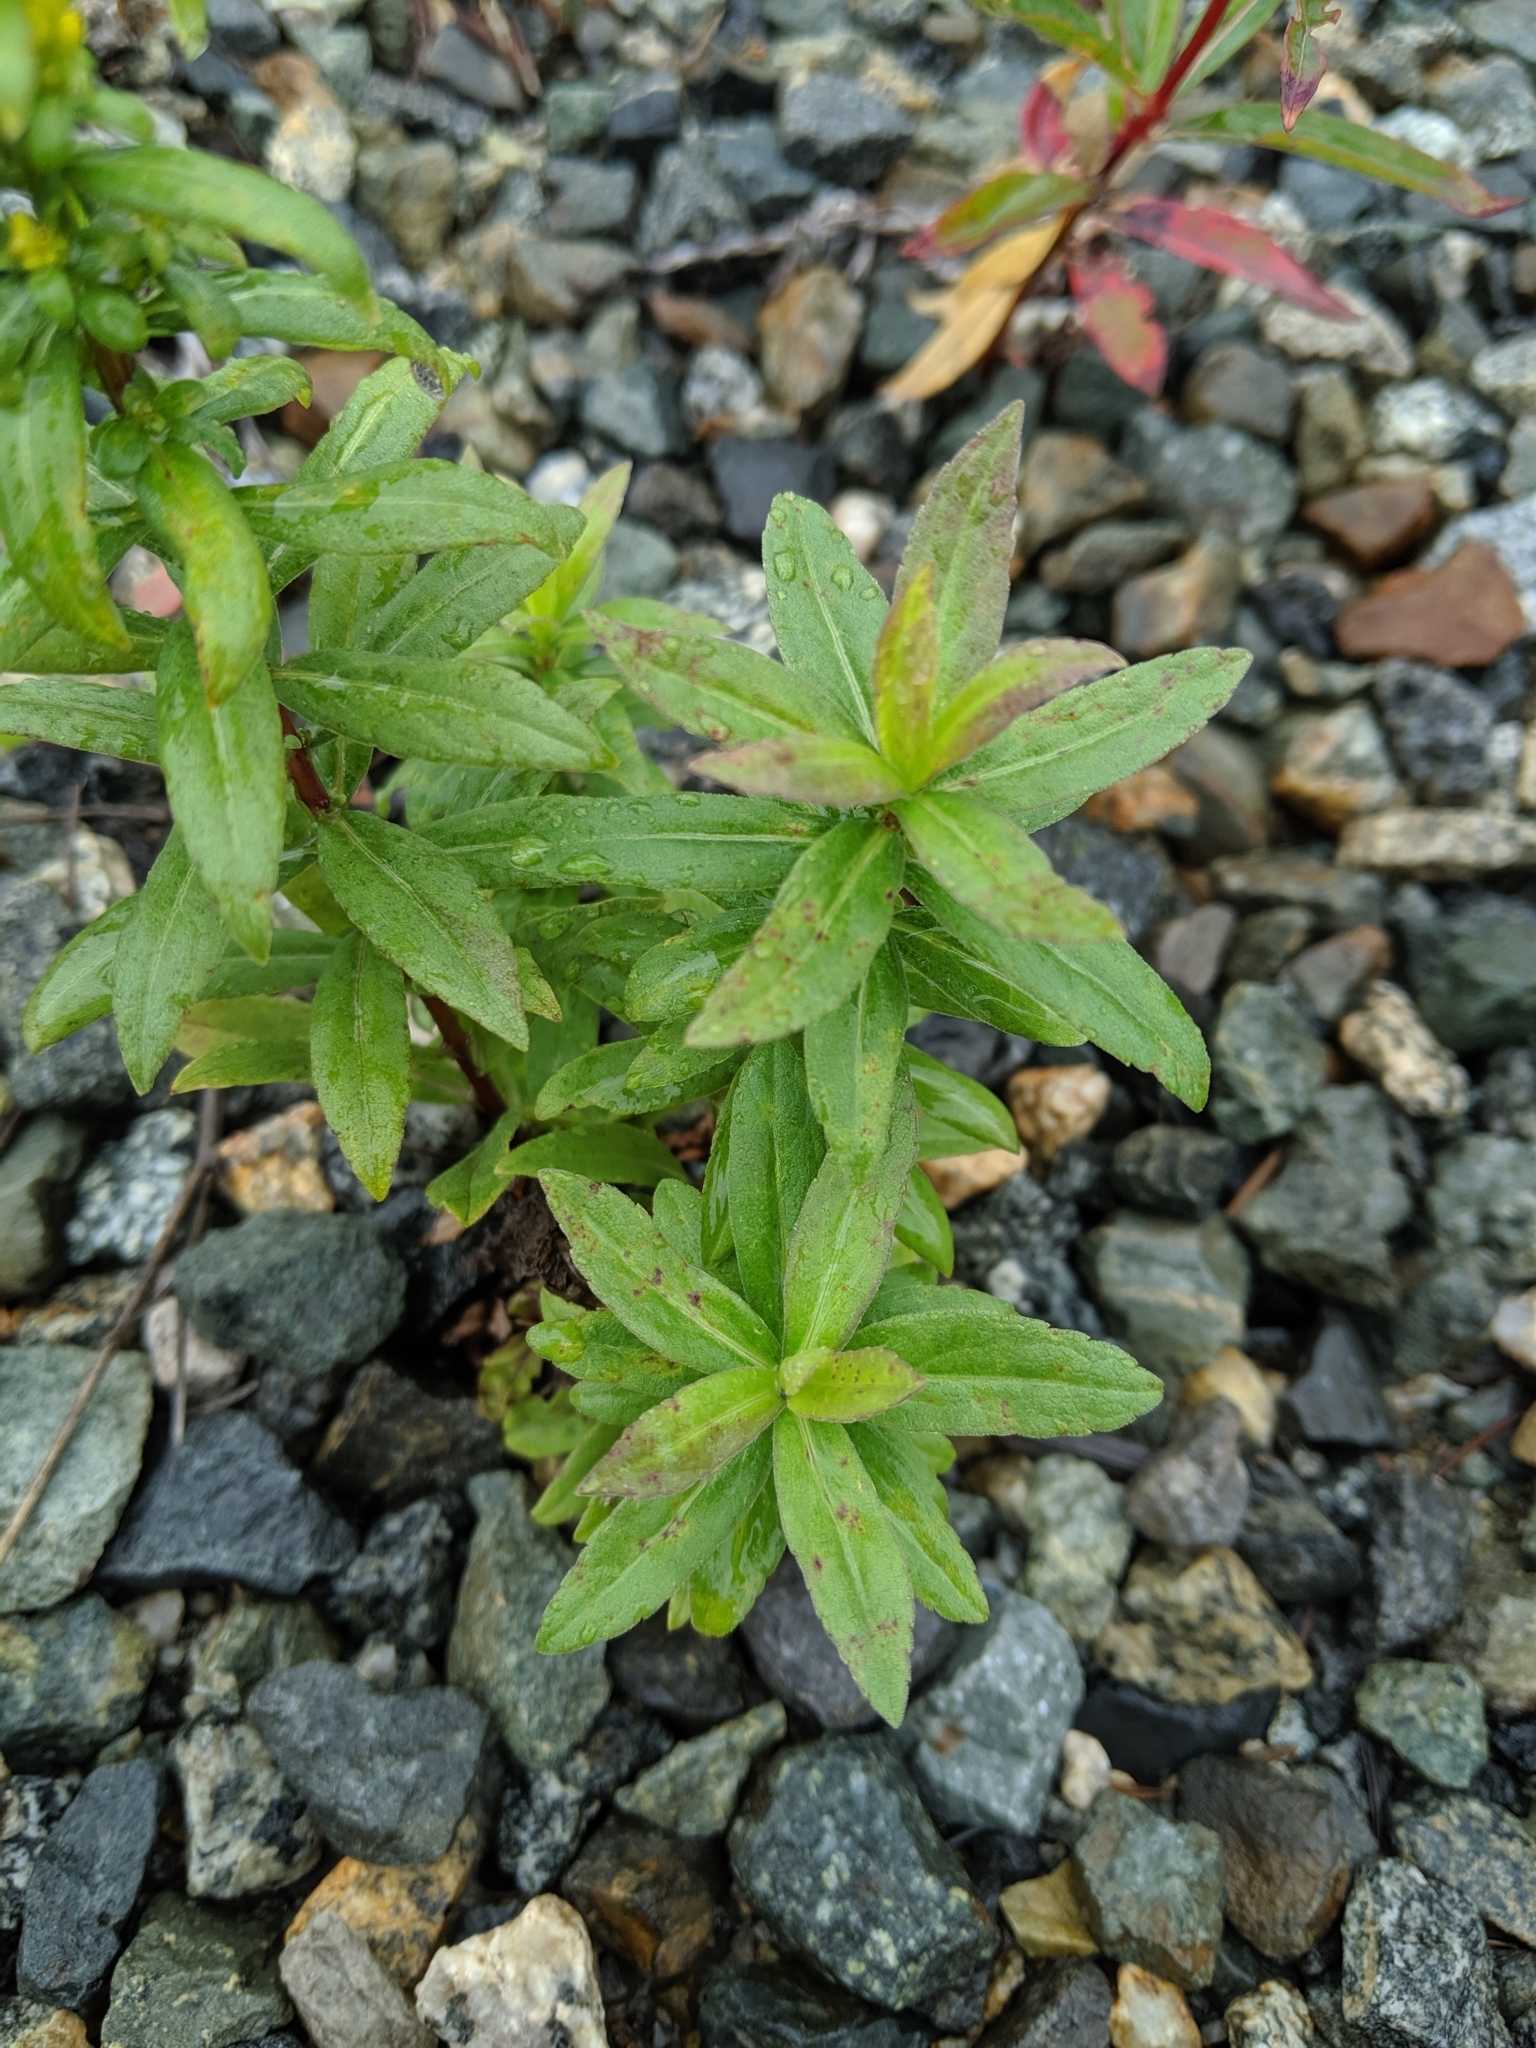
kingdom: Plantae
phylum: Tracheophyta
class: Magnoliopsida
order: Asterales
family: Asteraceae
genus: Solidago
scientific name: Solidago canadensis
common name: Canada goldenrod
